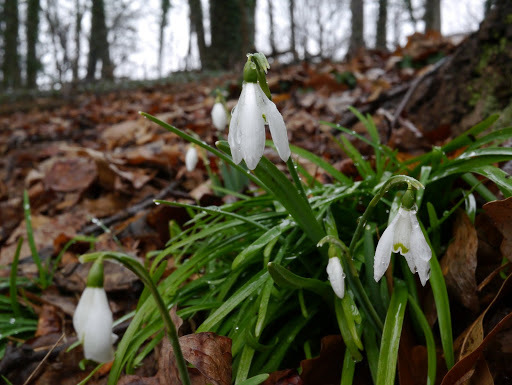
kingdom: Plantae
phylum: Tracheophyta
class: Liliopsida
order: Asparagales
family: Amaryllidaceae
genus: Galanthus
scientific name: Galanthus nivalis
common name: Snowdrop
